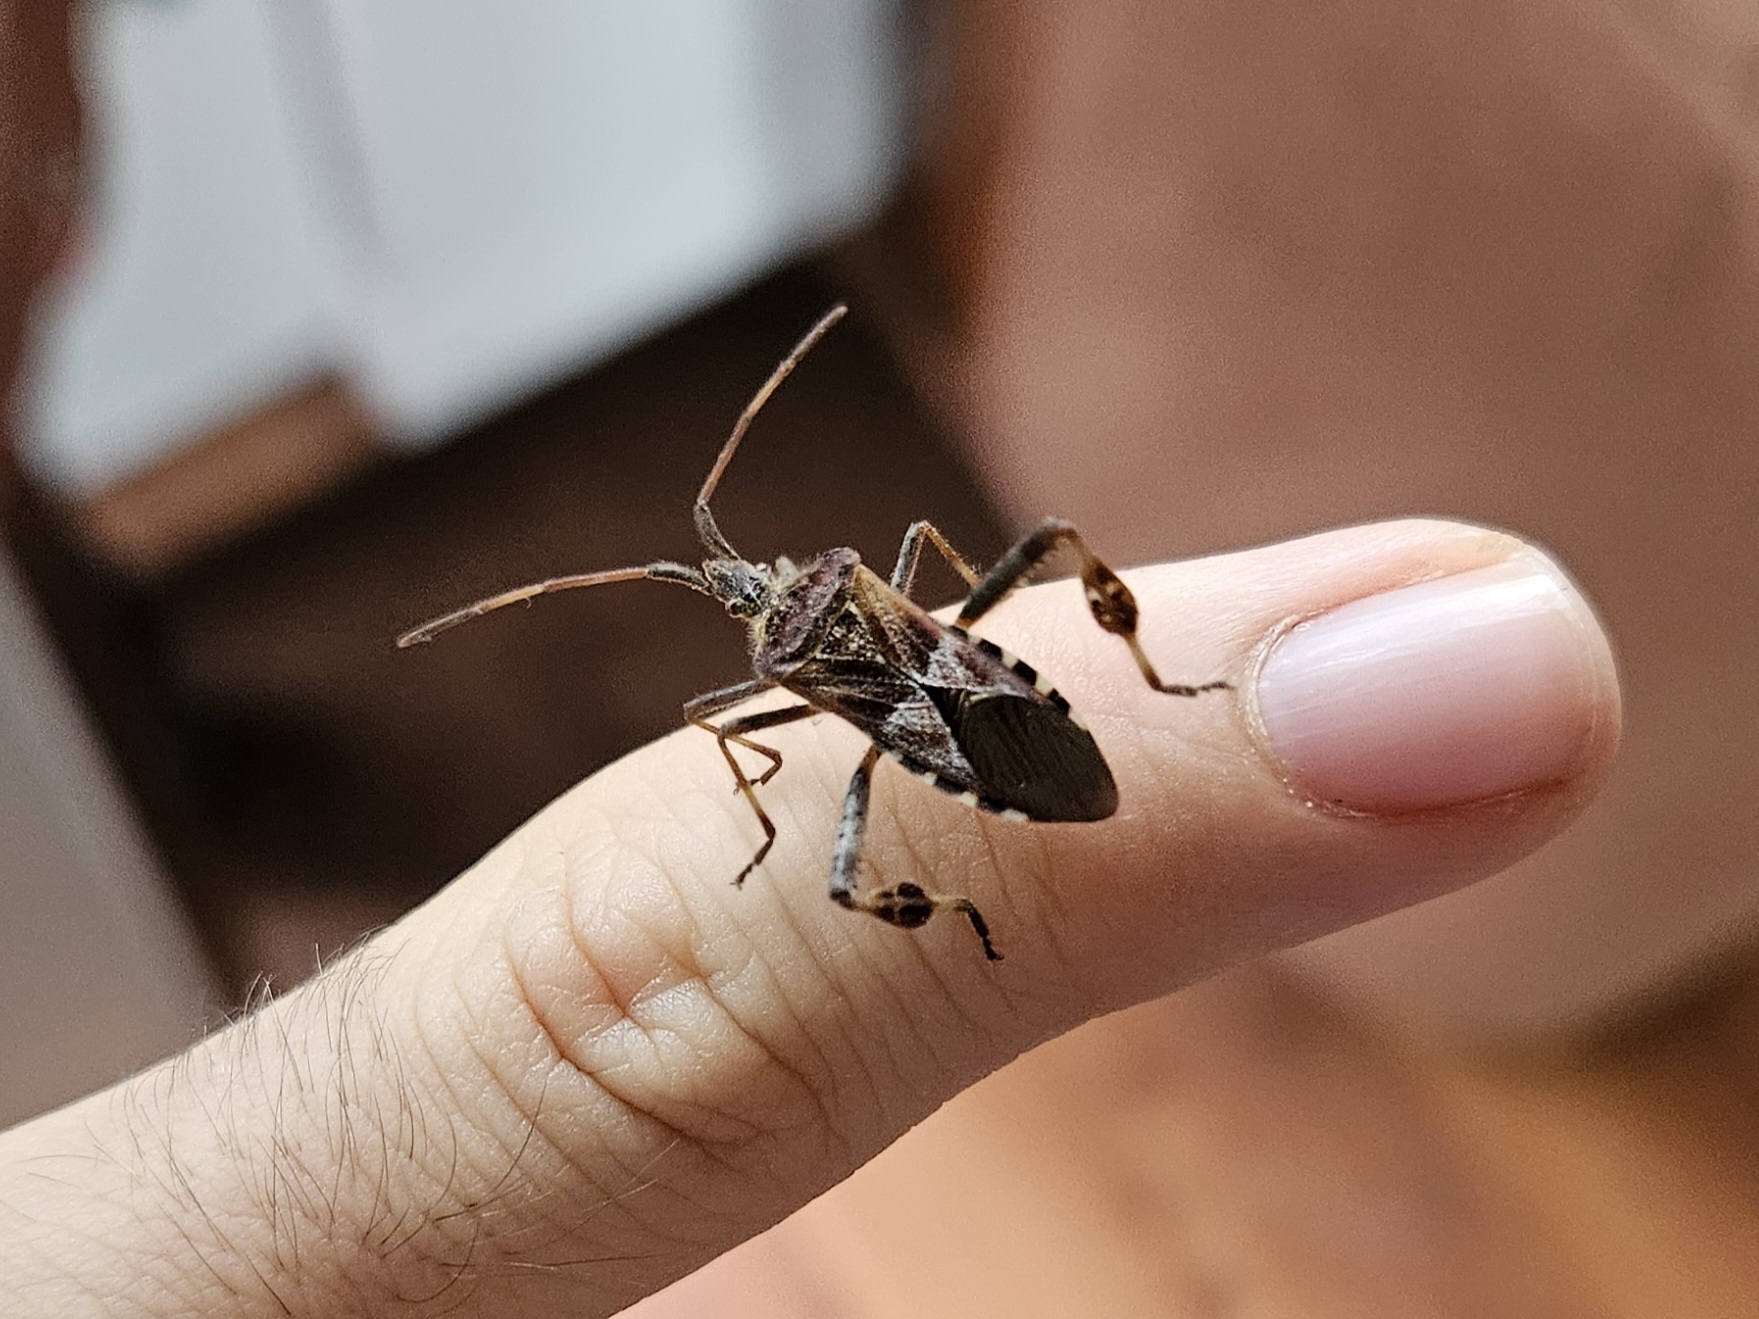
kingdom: Animalia
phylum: Arthropoda
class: Insecta
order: Hemiptera
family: Coreidae
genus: Leptoglossus
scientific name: Leptoglossus occidentalis
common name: Western conifer-seed bug
